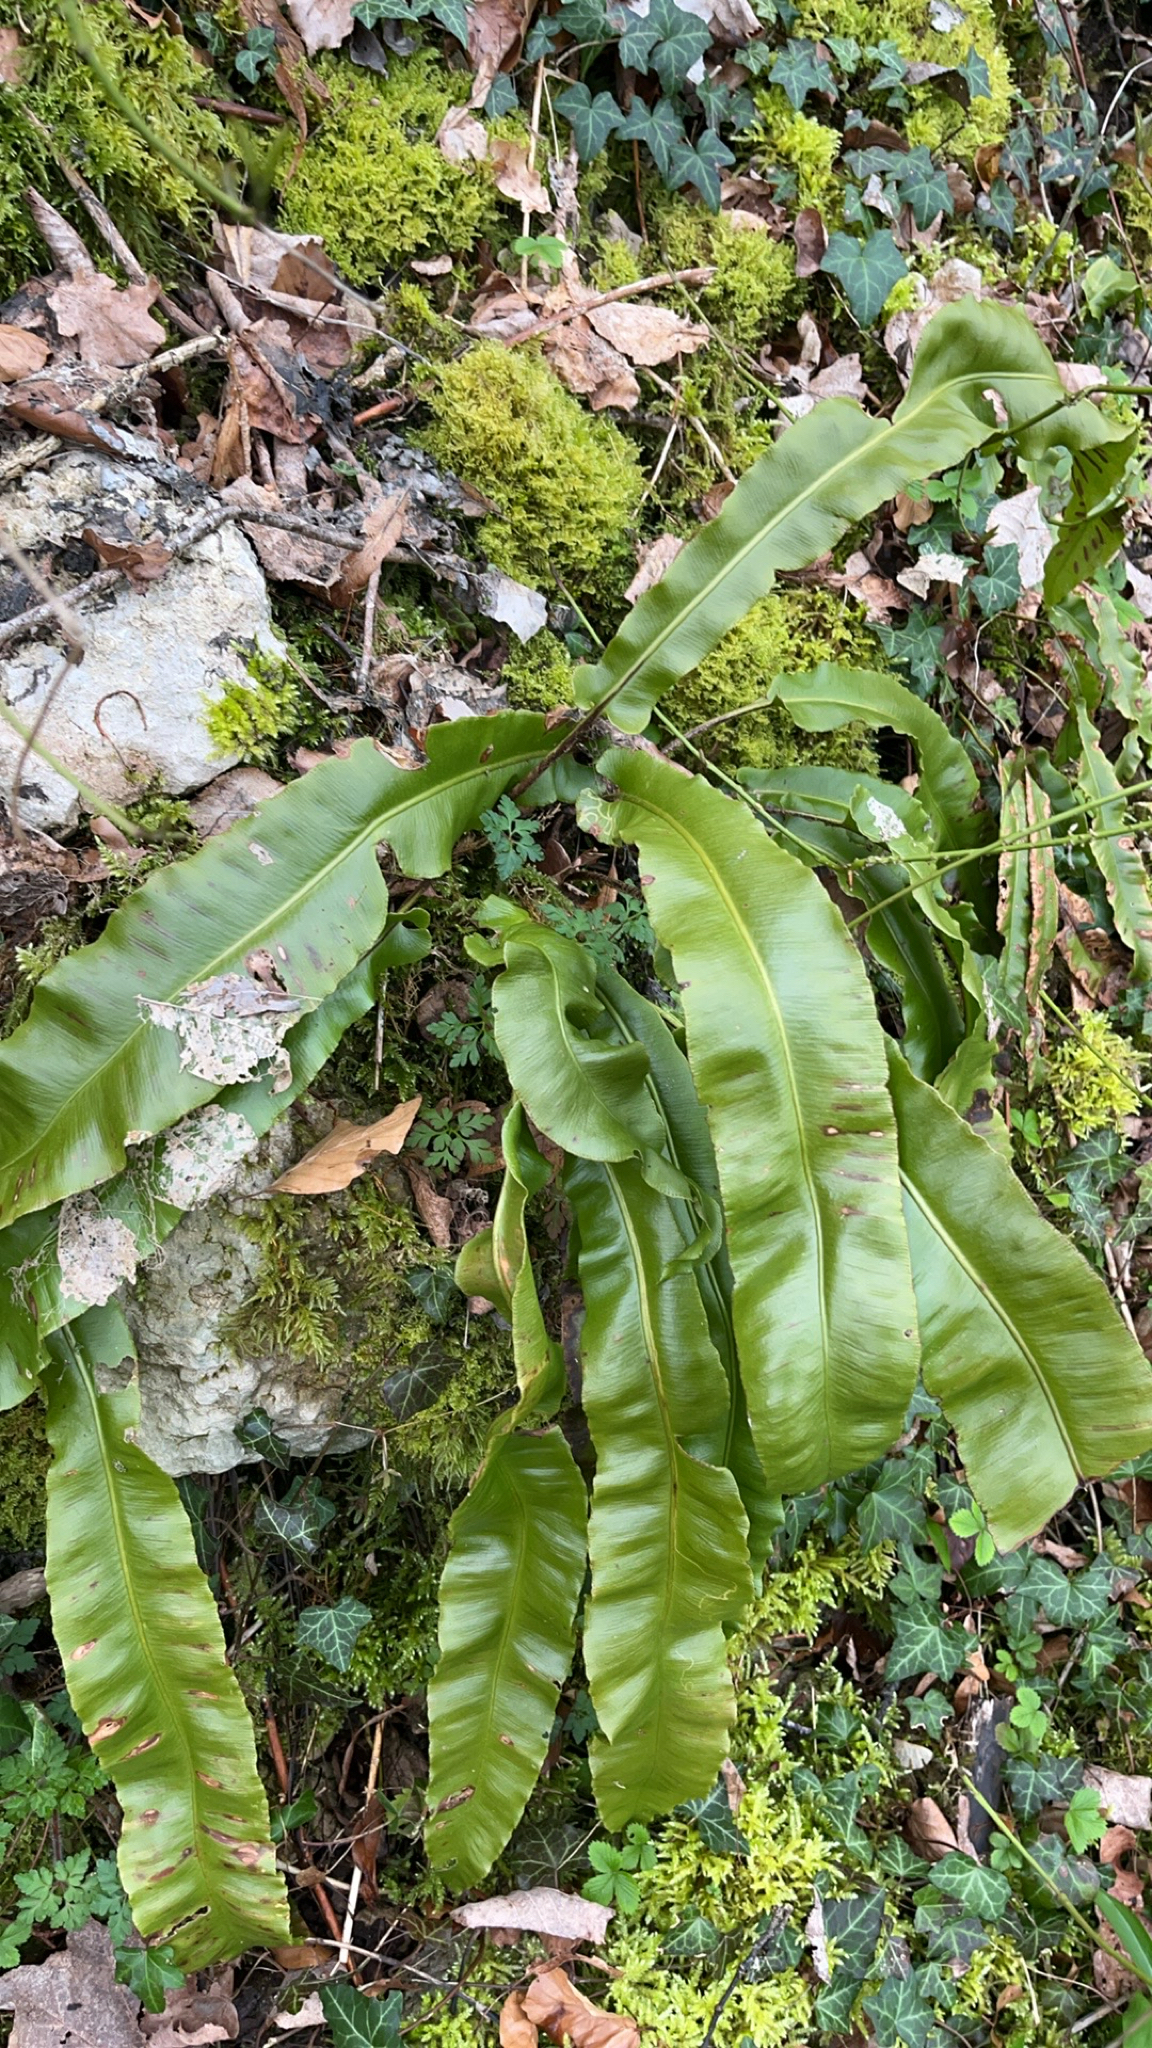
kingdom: Plantae
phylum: Tracheophyta
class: Polypodiopsida
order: Polypodiales
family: Aspleniaceae
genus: Asplenium
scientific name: Asplenium scolopendrium
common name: Hart's-tongue fern
